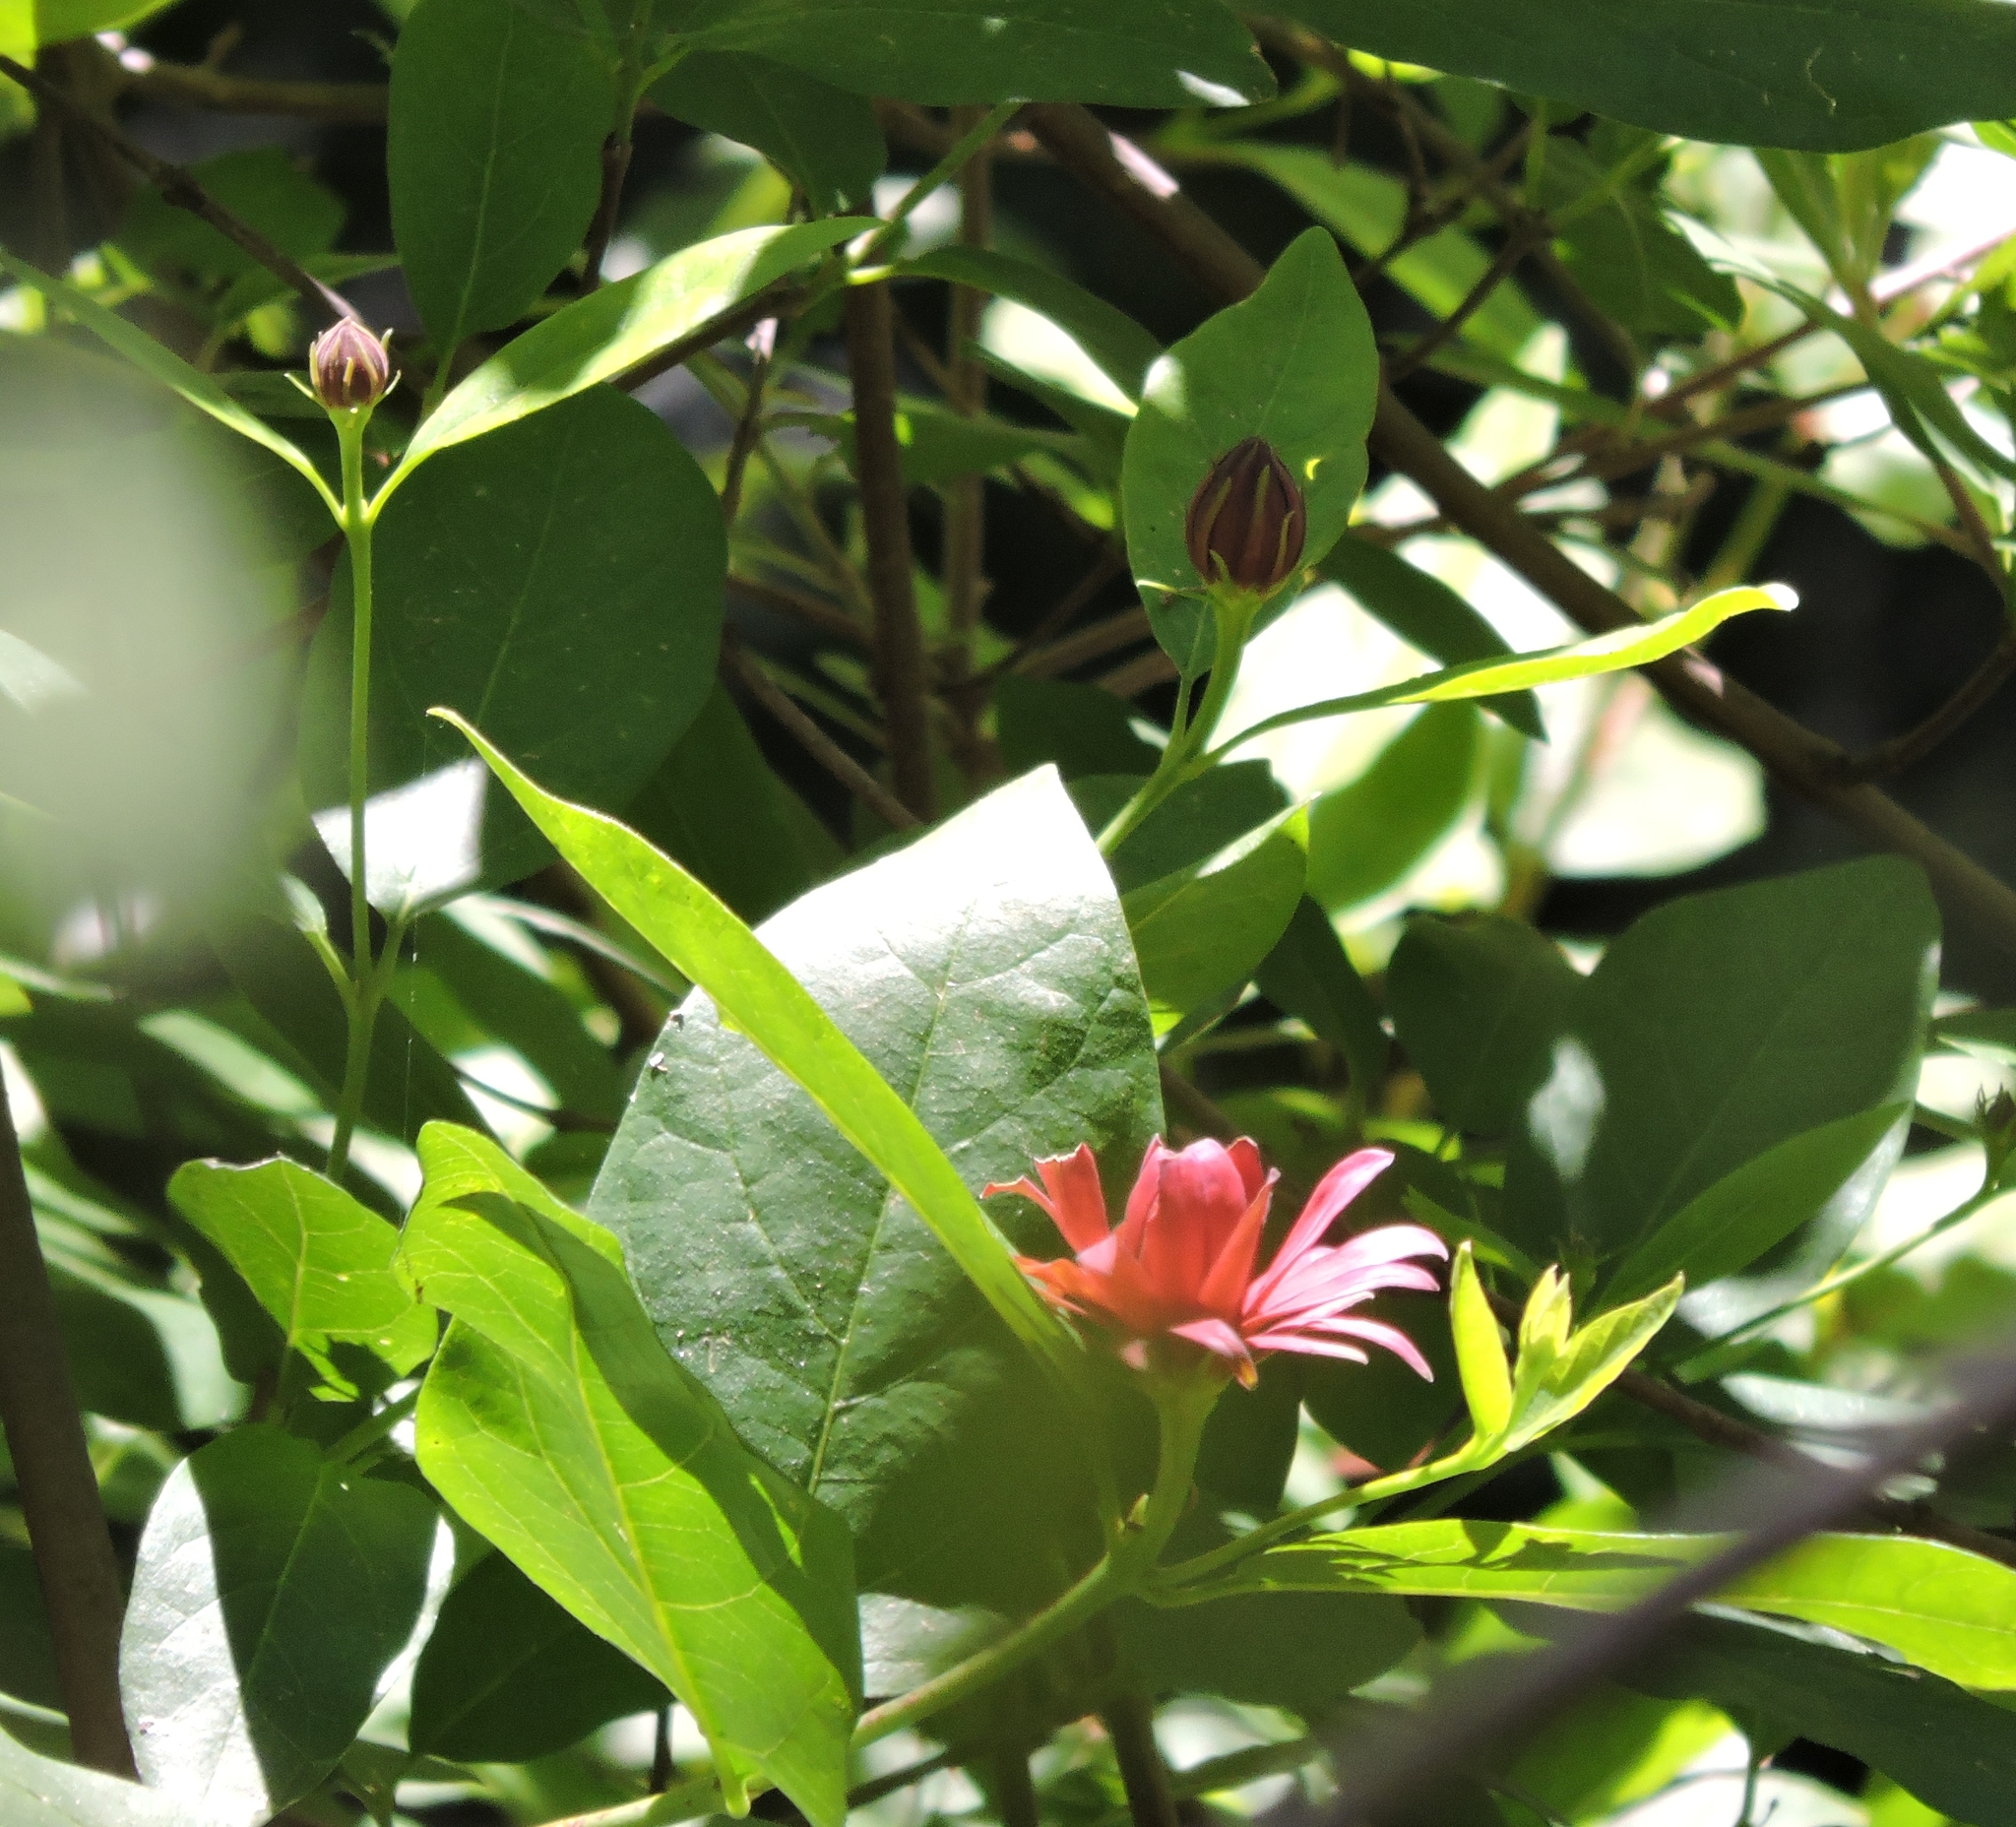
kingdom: Plantae
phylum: Tracheophyta
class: Magnoliopsida
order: Laurales
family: Calycanthaceae
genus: Calycanthus
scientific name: Calycanthus occidentalis
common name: California spicebush
